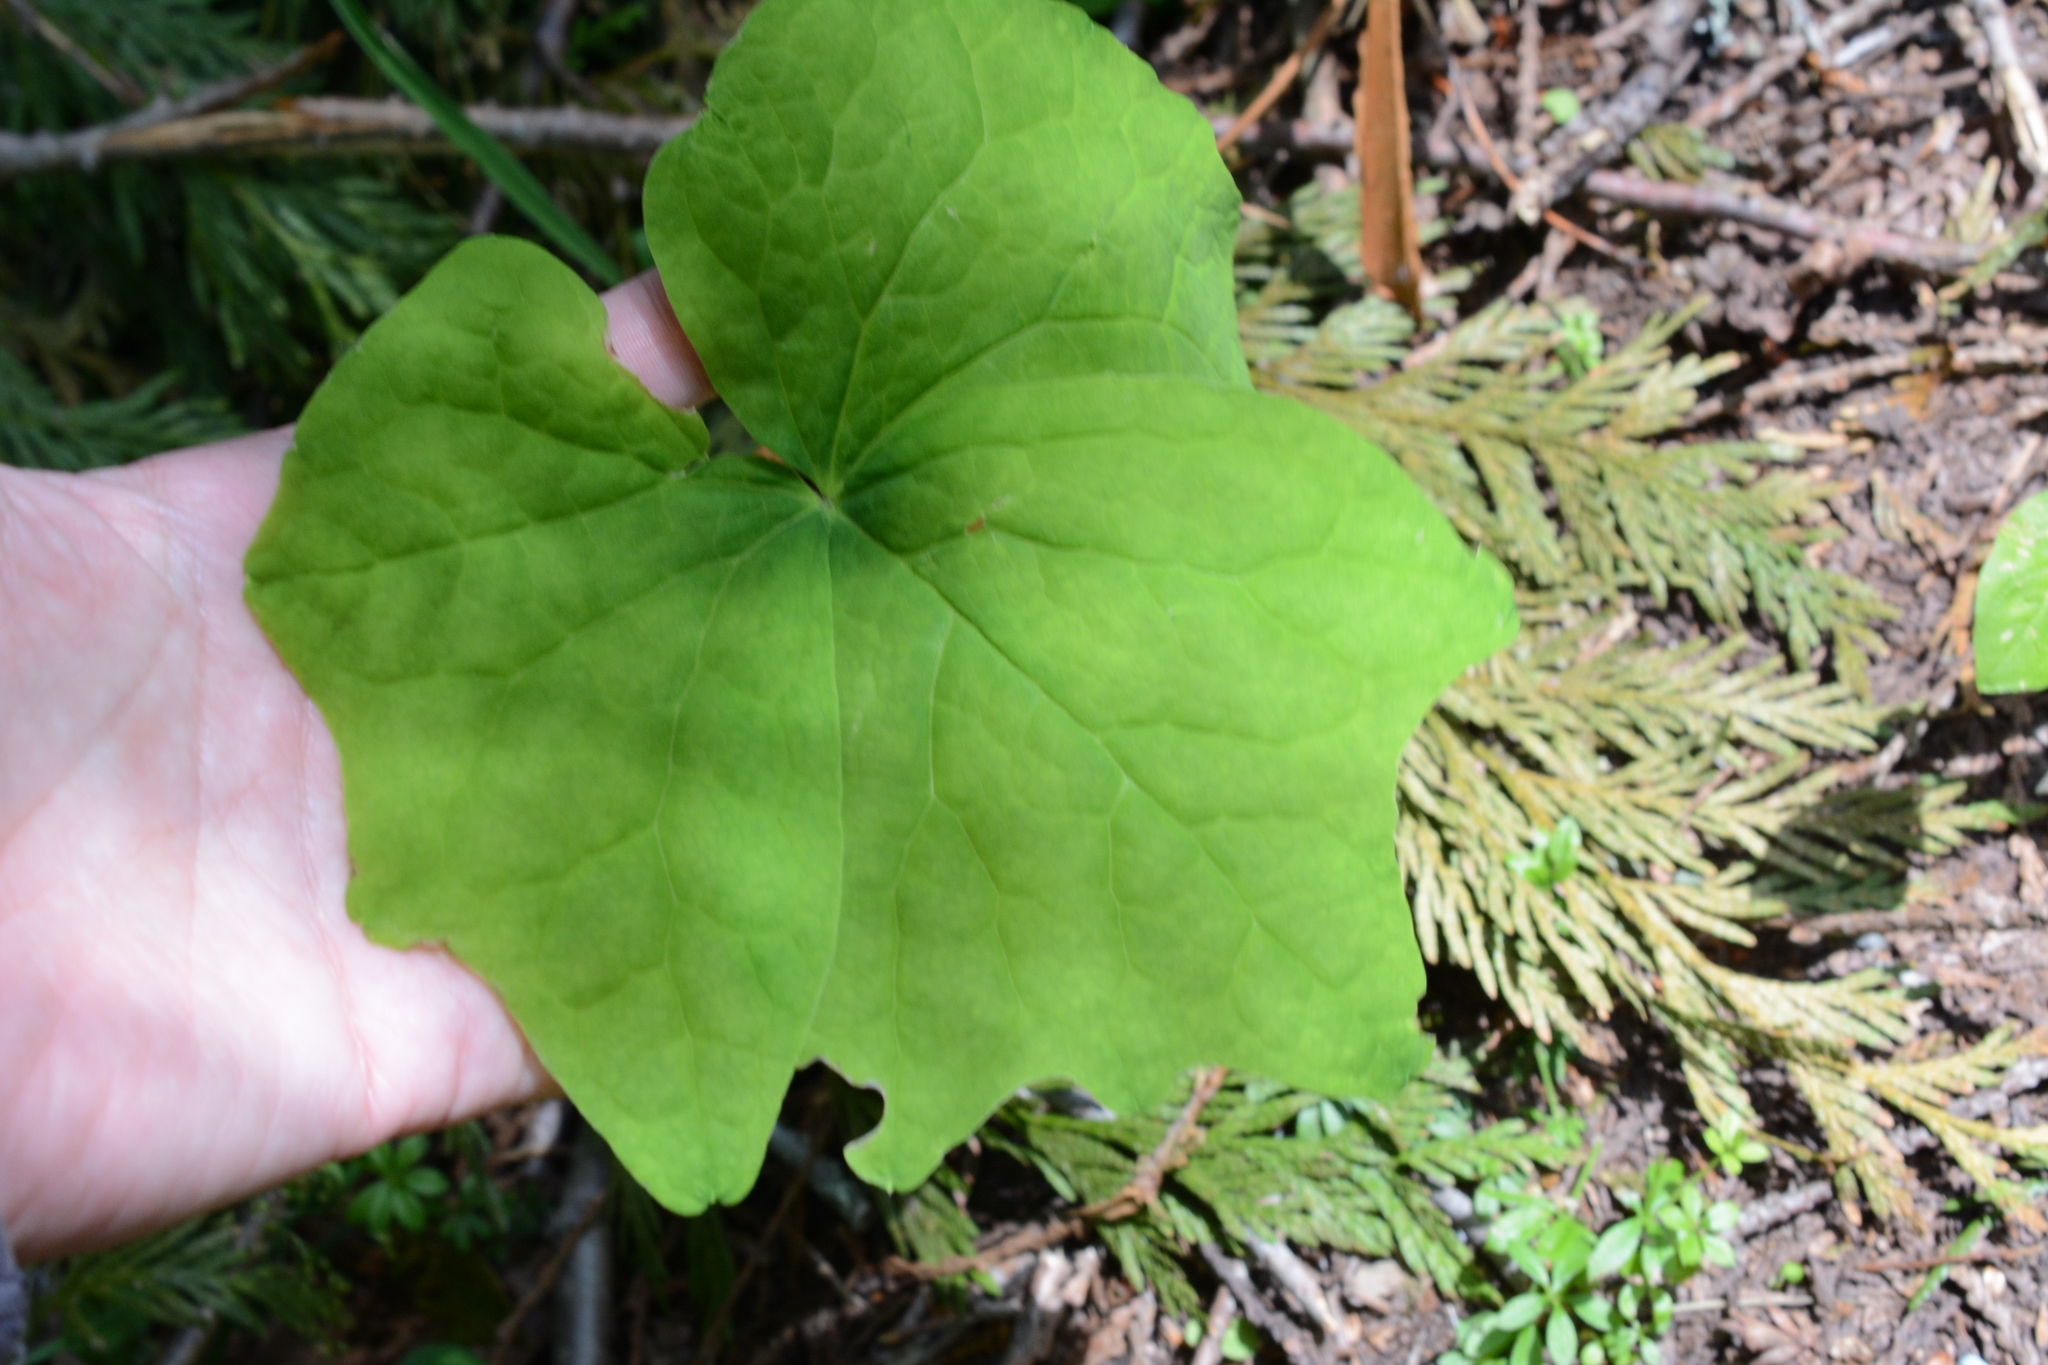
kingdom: Plantae
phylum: Tracheophyta
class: Magnoliopsida
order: Ranunculales
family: Berberidaceae
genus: Achlys
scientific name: Achlys triphylla
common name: Vanilla-leaf
